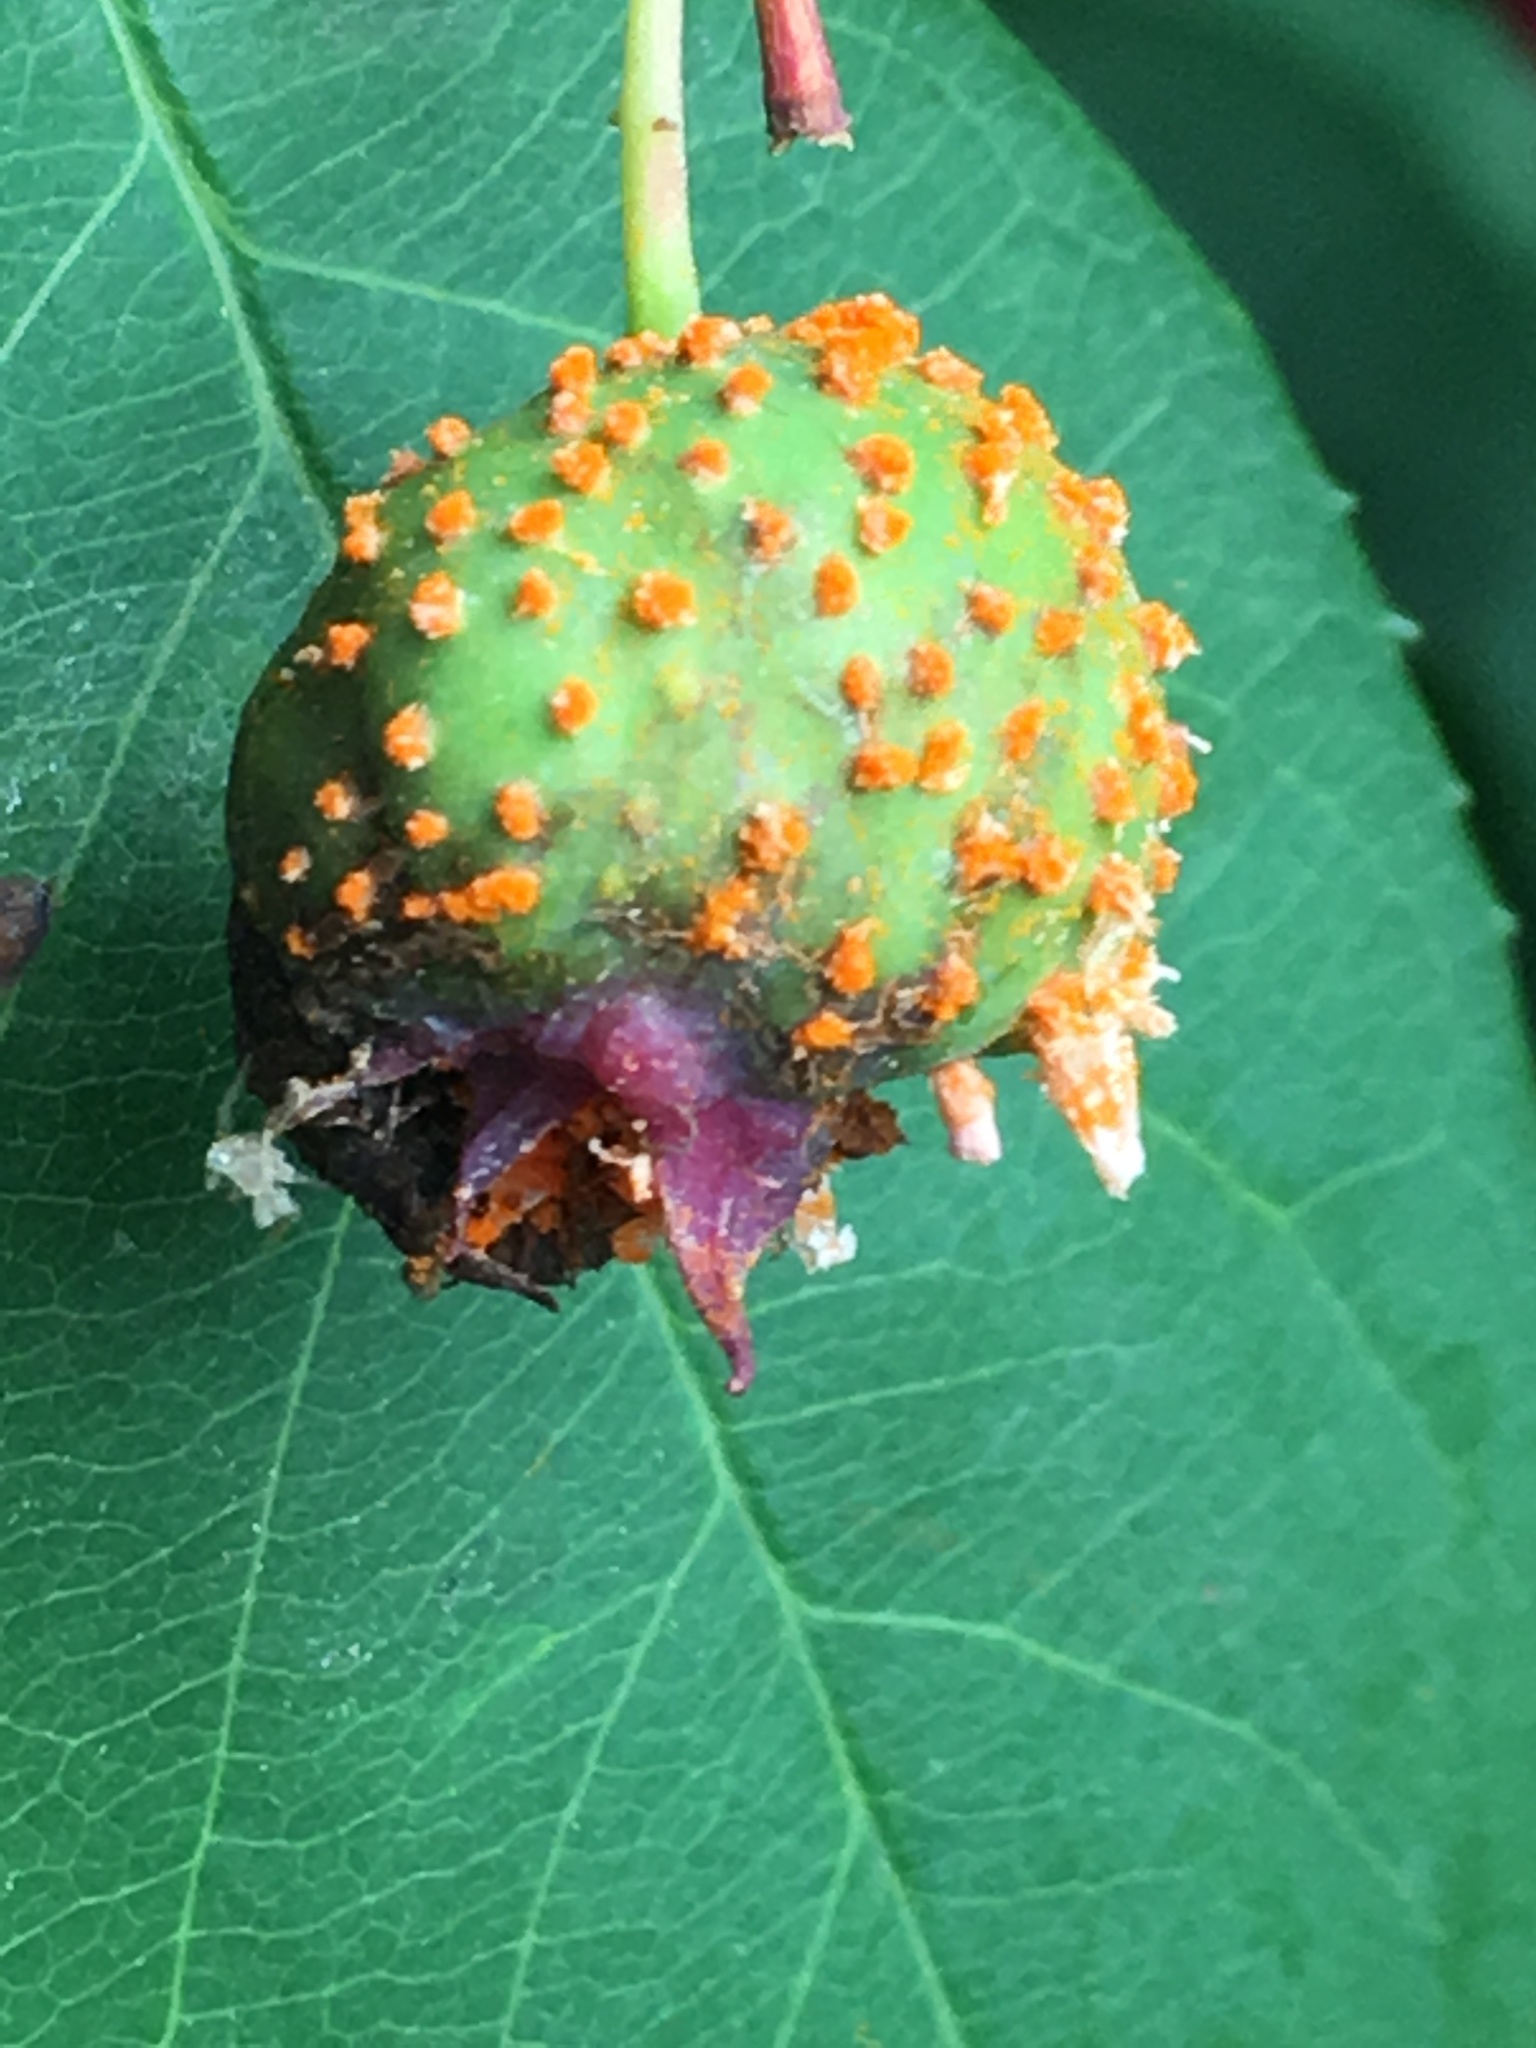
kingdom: Fungi
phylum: Basidiomycota
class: Pucciniomycetes
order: Pucciniales
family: Gymnosporangiaceae
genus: Gymnosporangium
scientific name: Gymnosporangium juniperi-virginianae
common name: Juniper-apple rust
